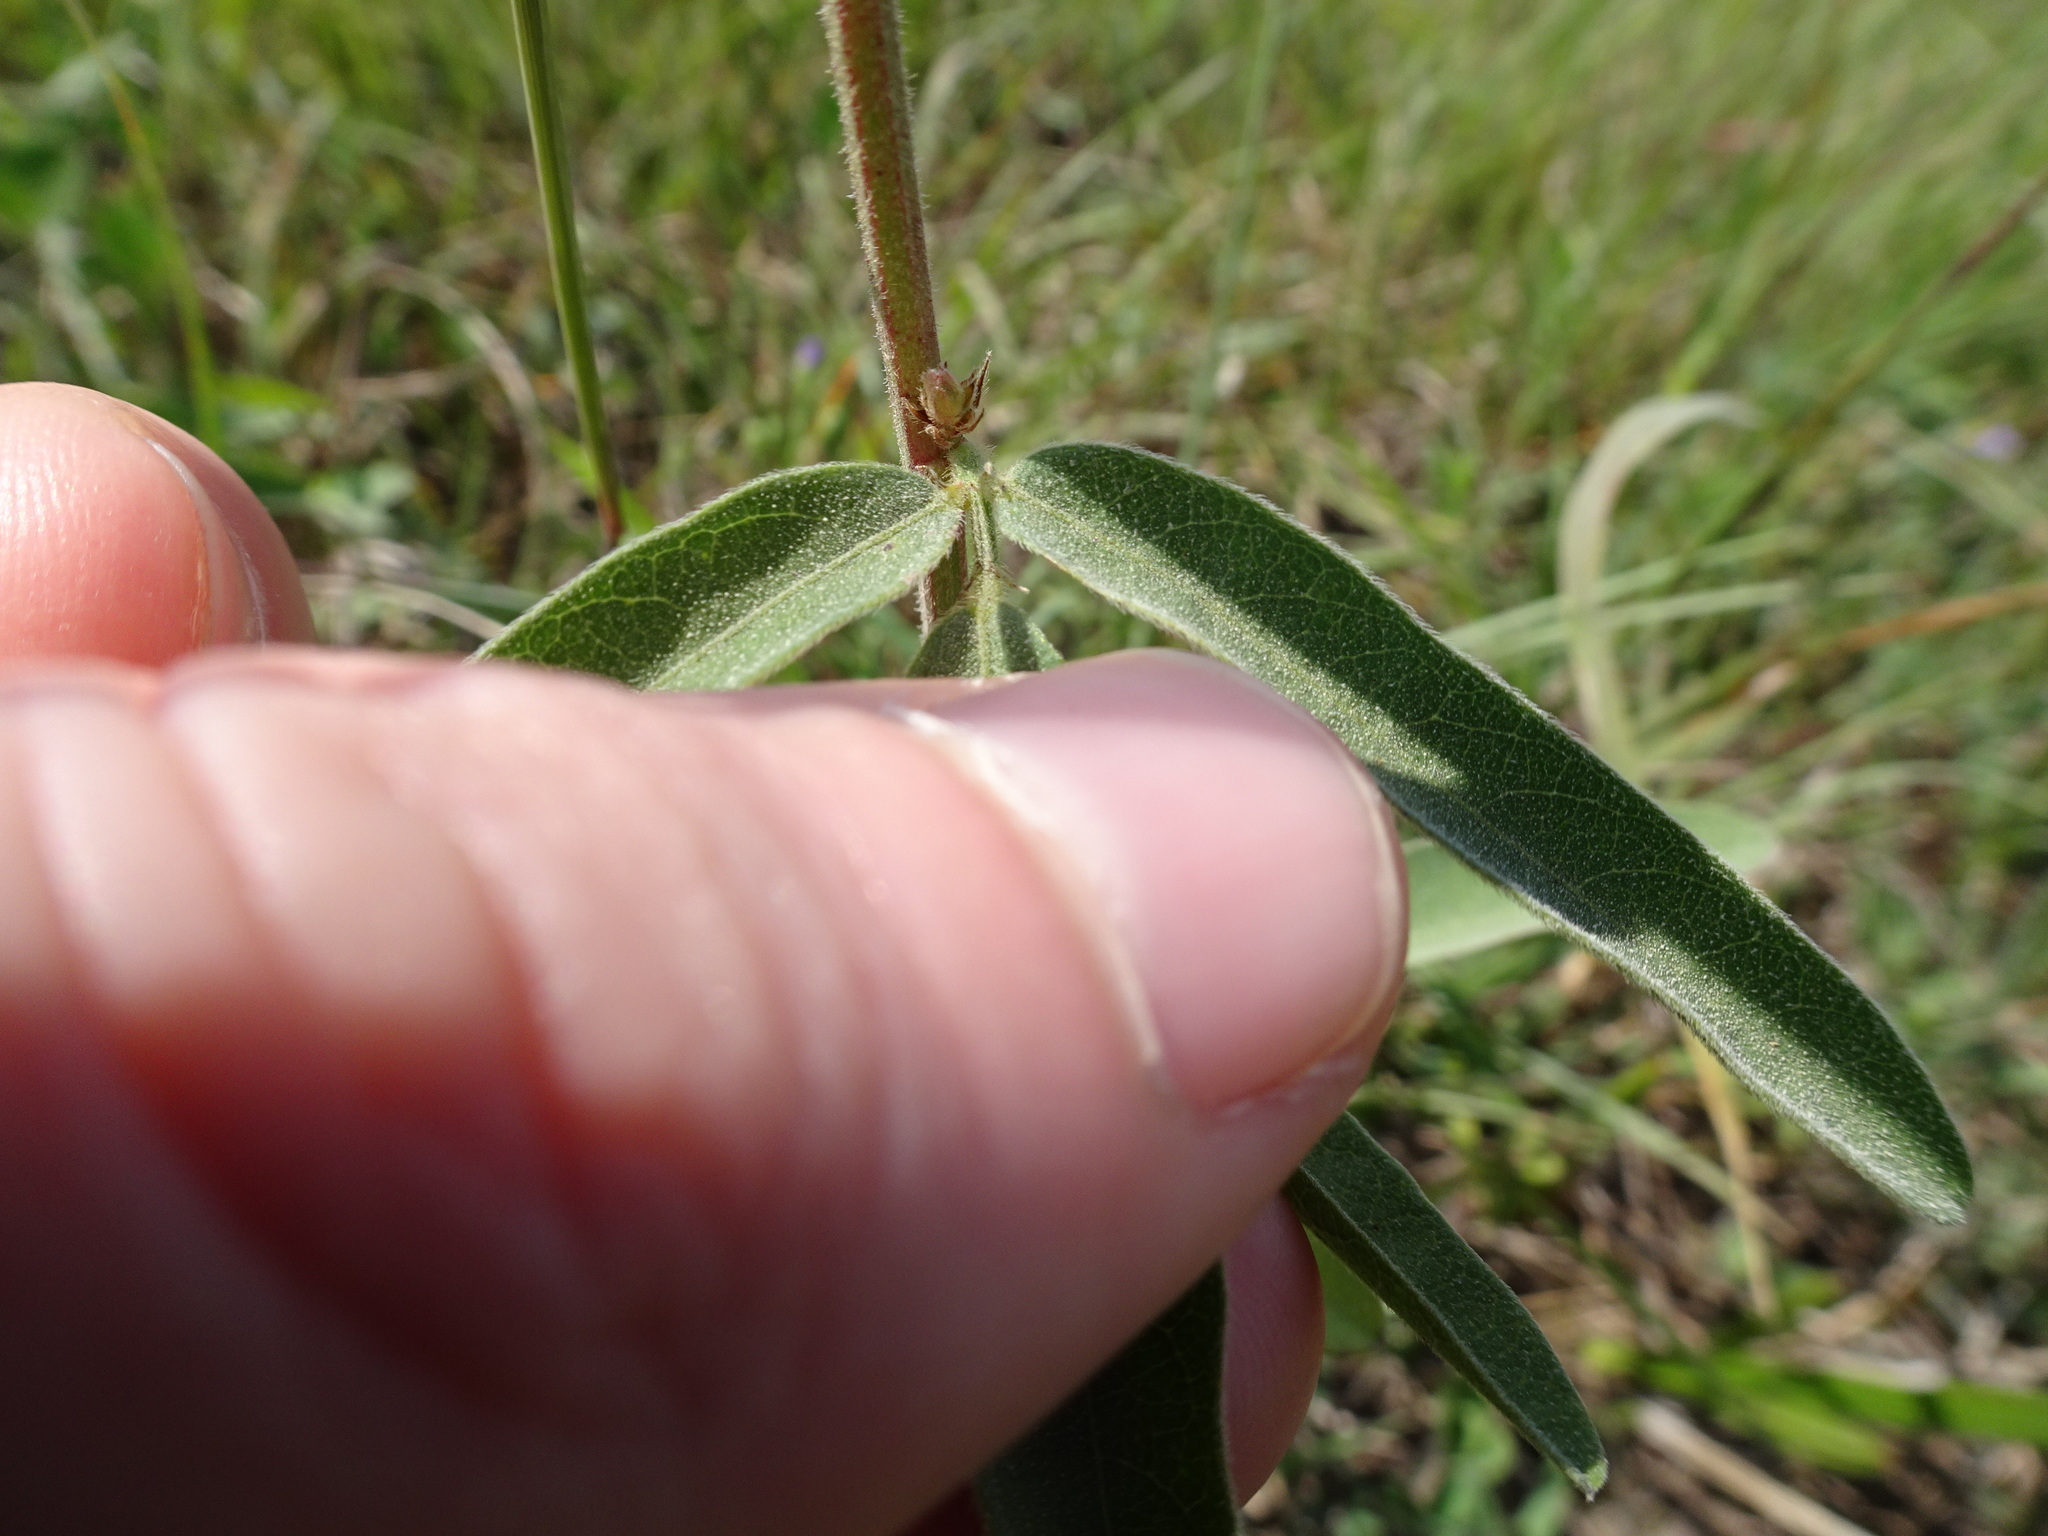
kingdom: Plantae
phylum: Tracheophyta
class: Magnoliopsida
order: Fabales
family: Fabaceae
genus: Desmodium
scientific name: Desmodium sessilifolium
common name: Sessile tick-clover
